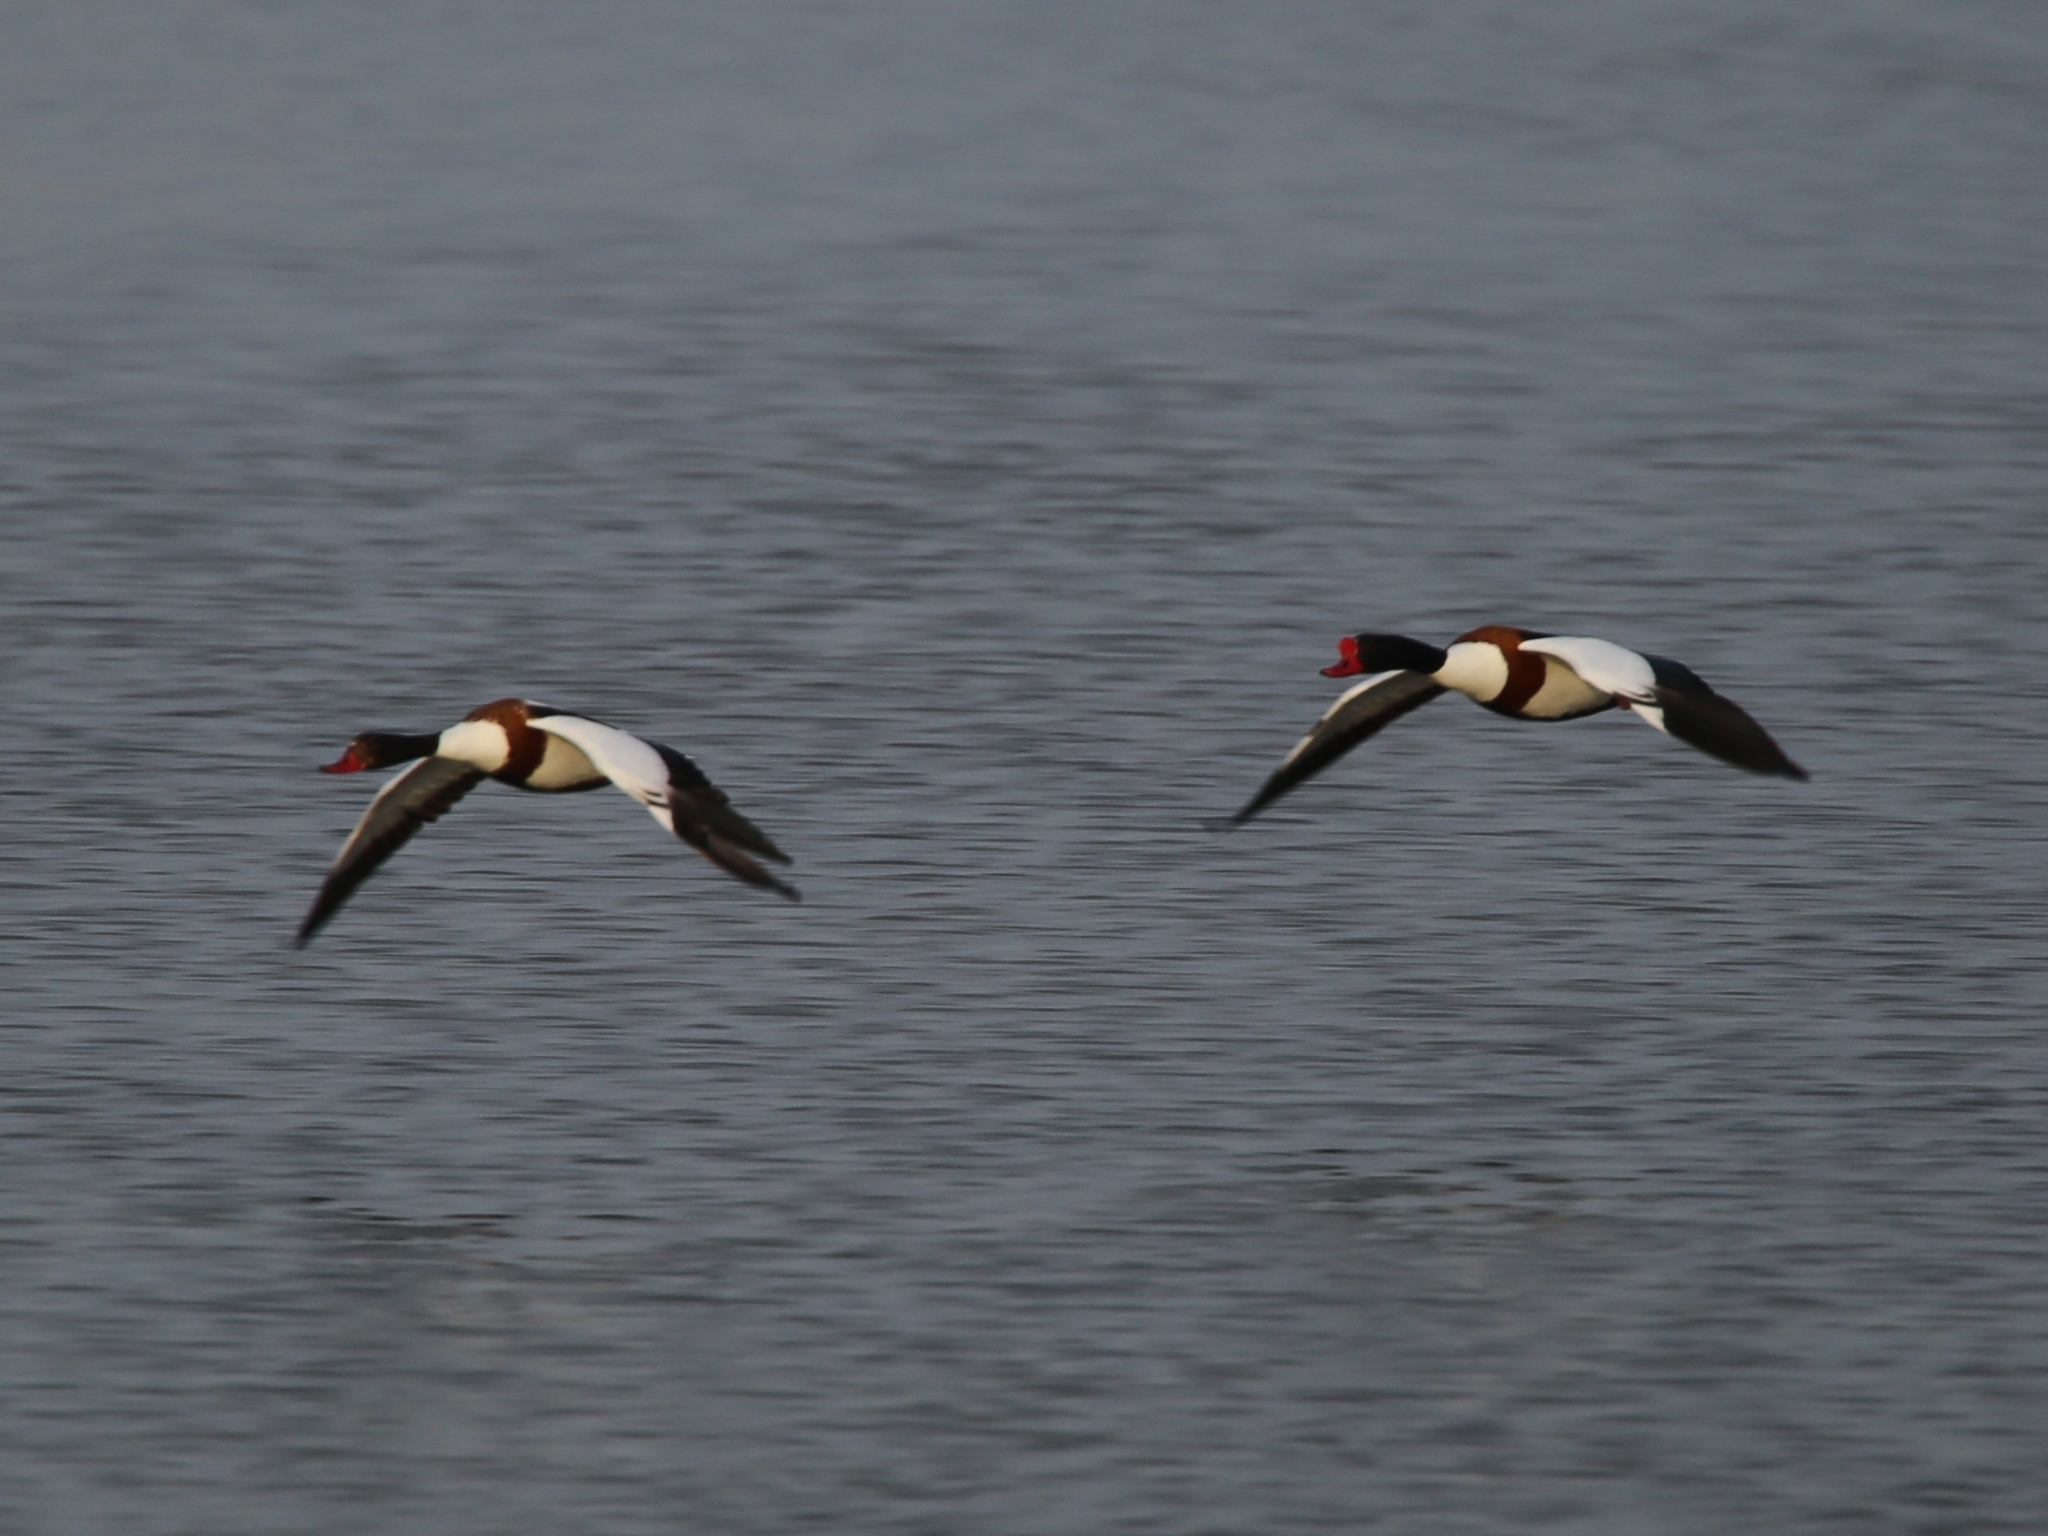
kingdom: Animalia
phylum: Chordata
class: Aves
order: Anseriformes
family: Anatidae
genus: Tadorna
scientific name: Tadorna tadorna
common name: Common shelduck
